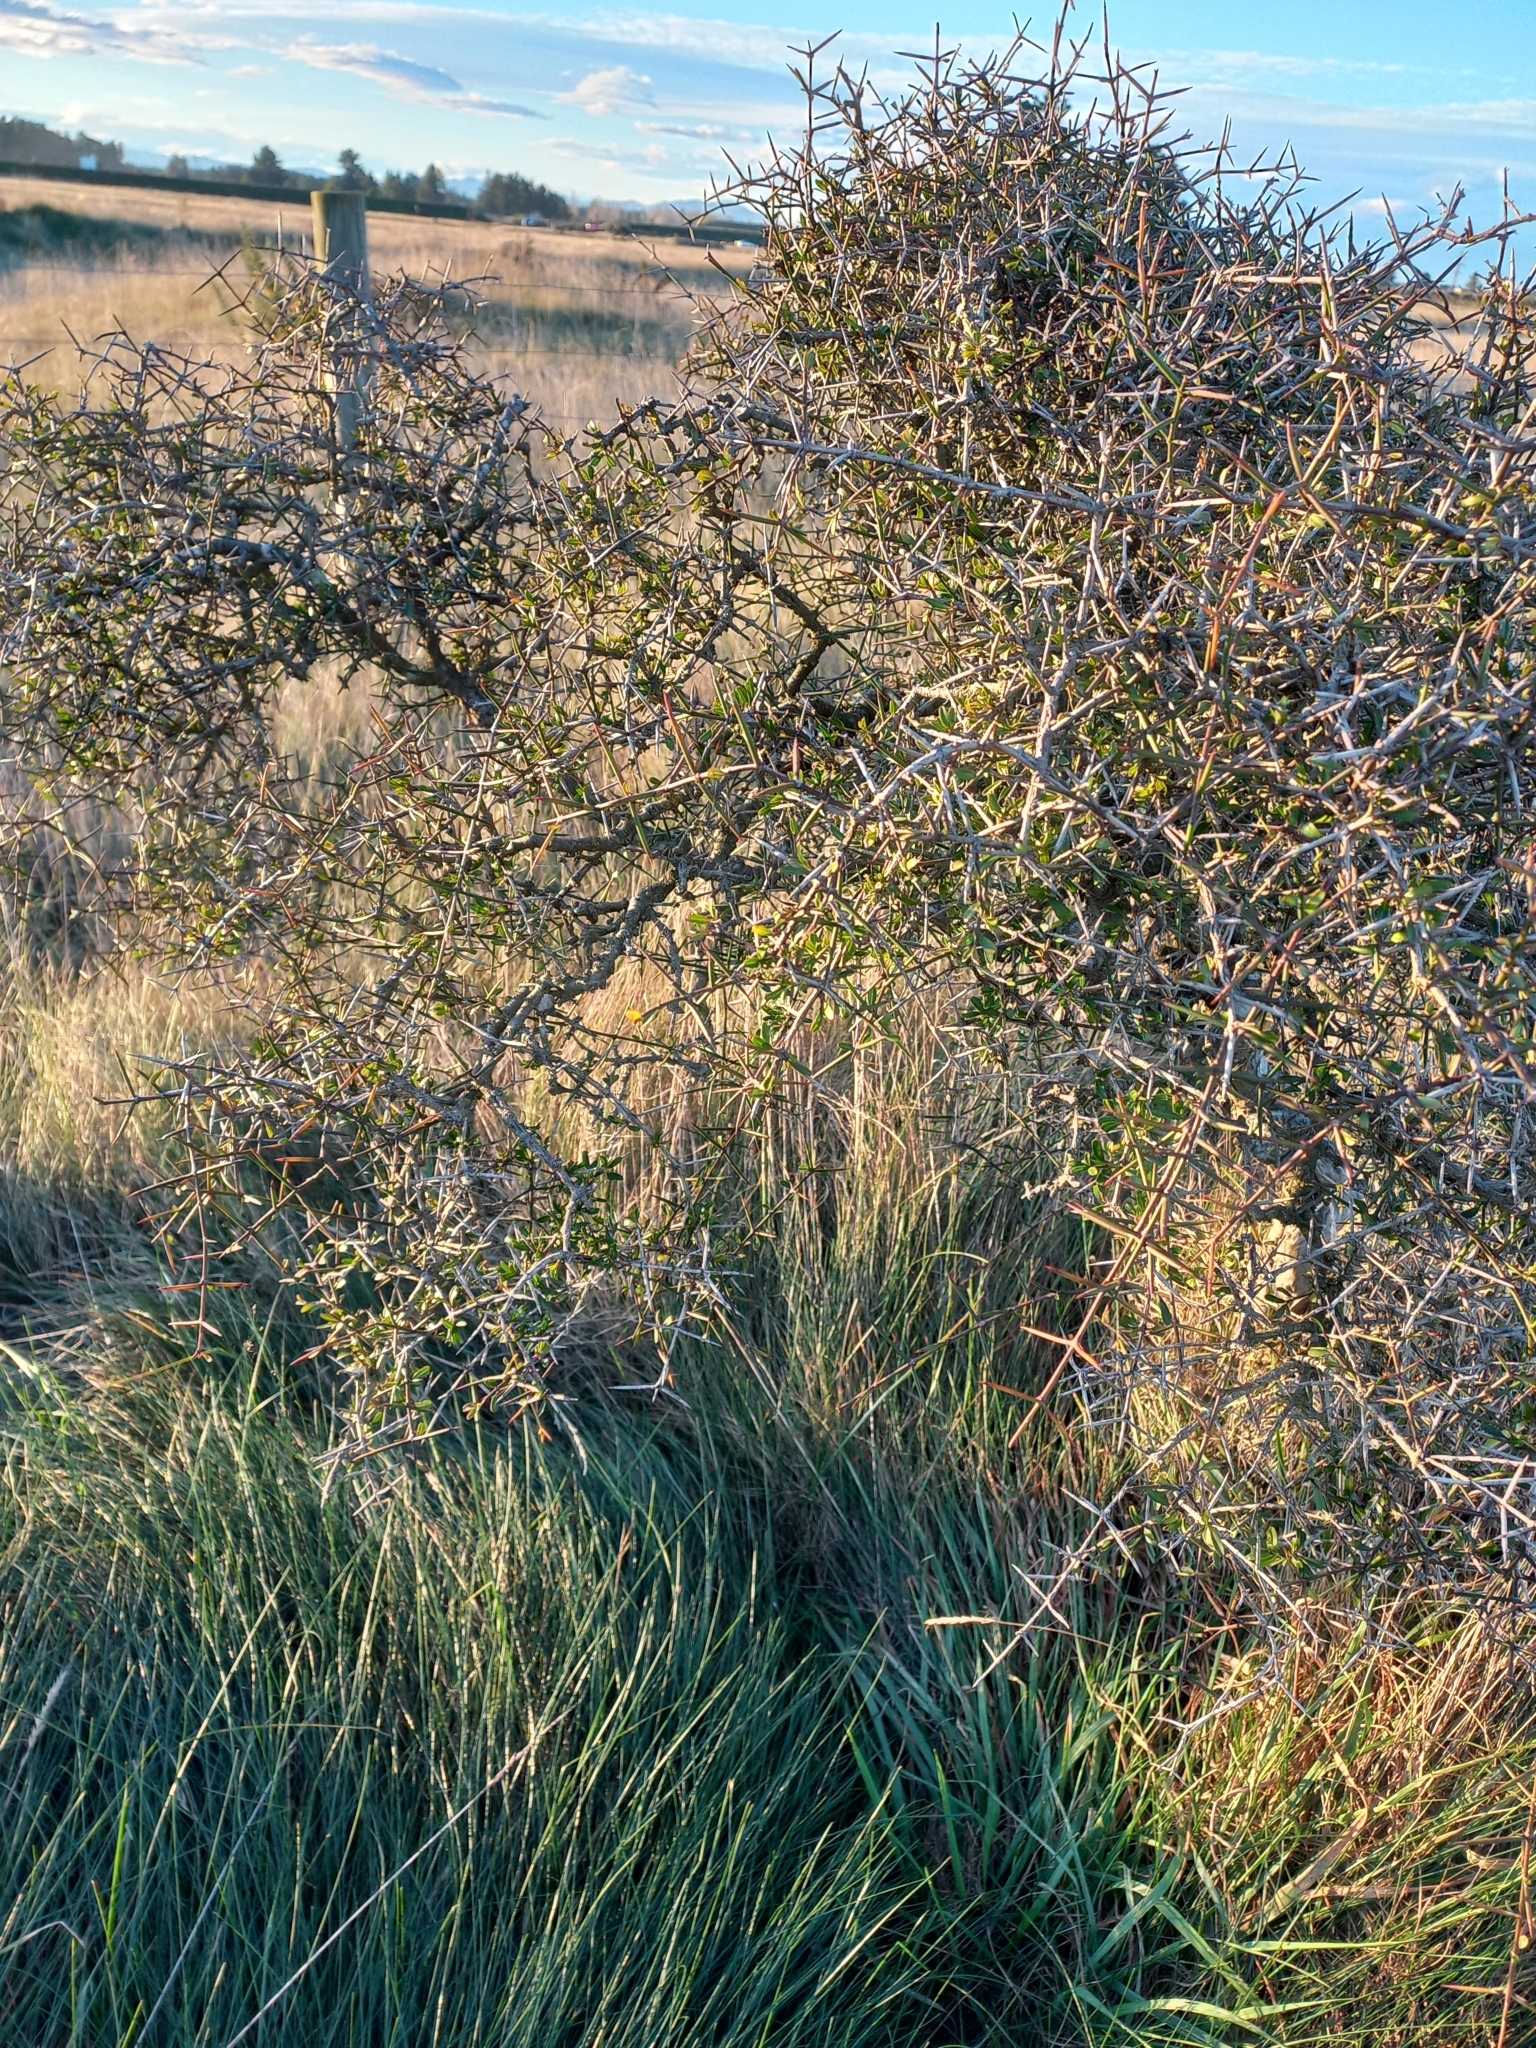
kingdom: Plantae
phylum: Tracheophyta
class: Magnoliopsida
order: Rosales
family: Rhamnaceae
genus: Discaria
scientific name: Discaria toumatou
